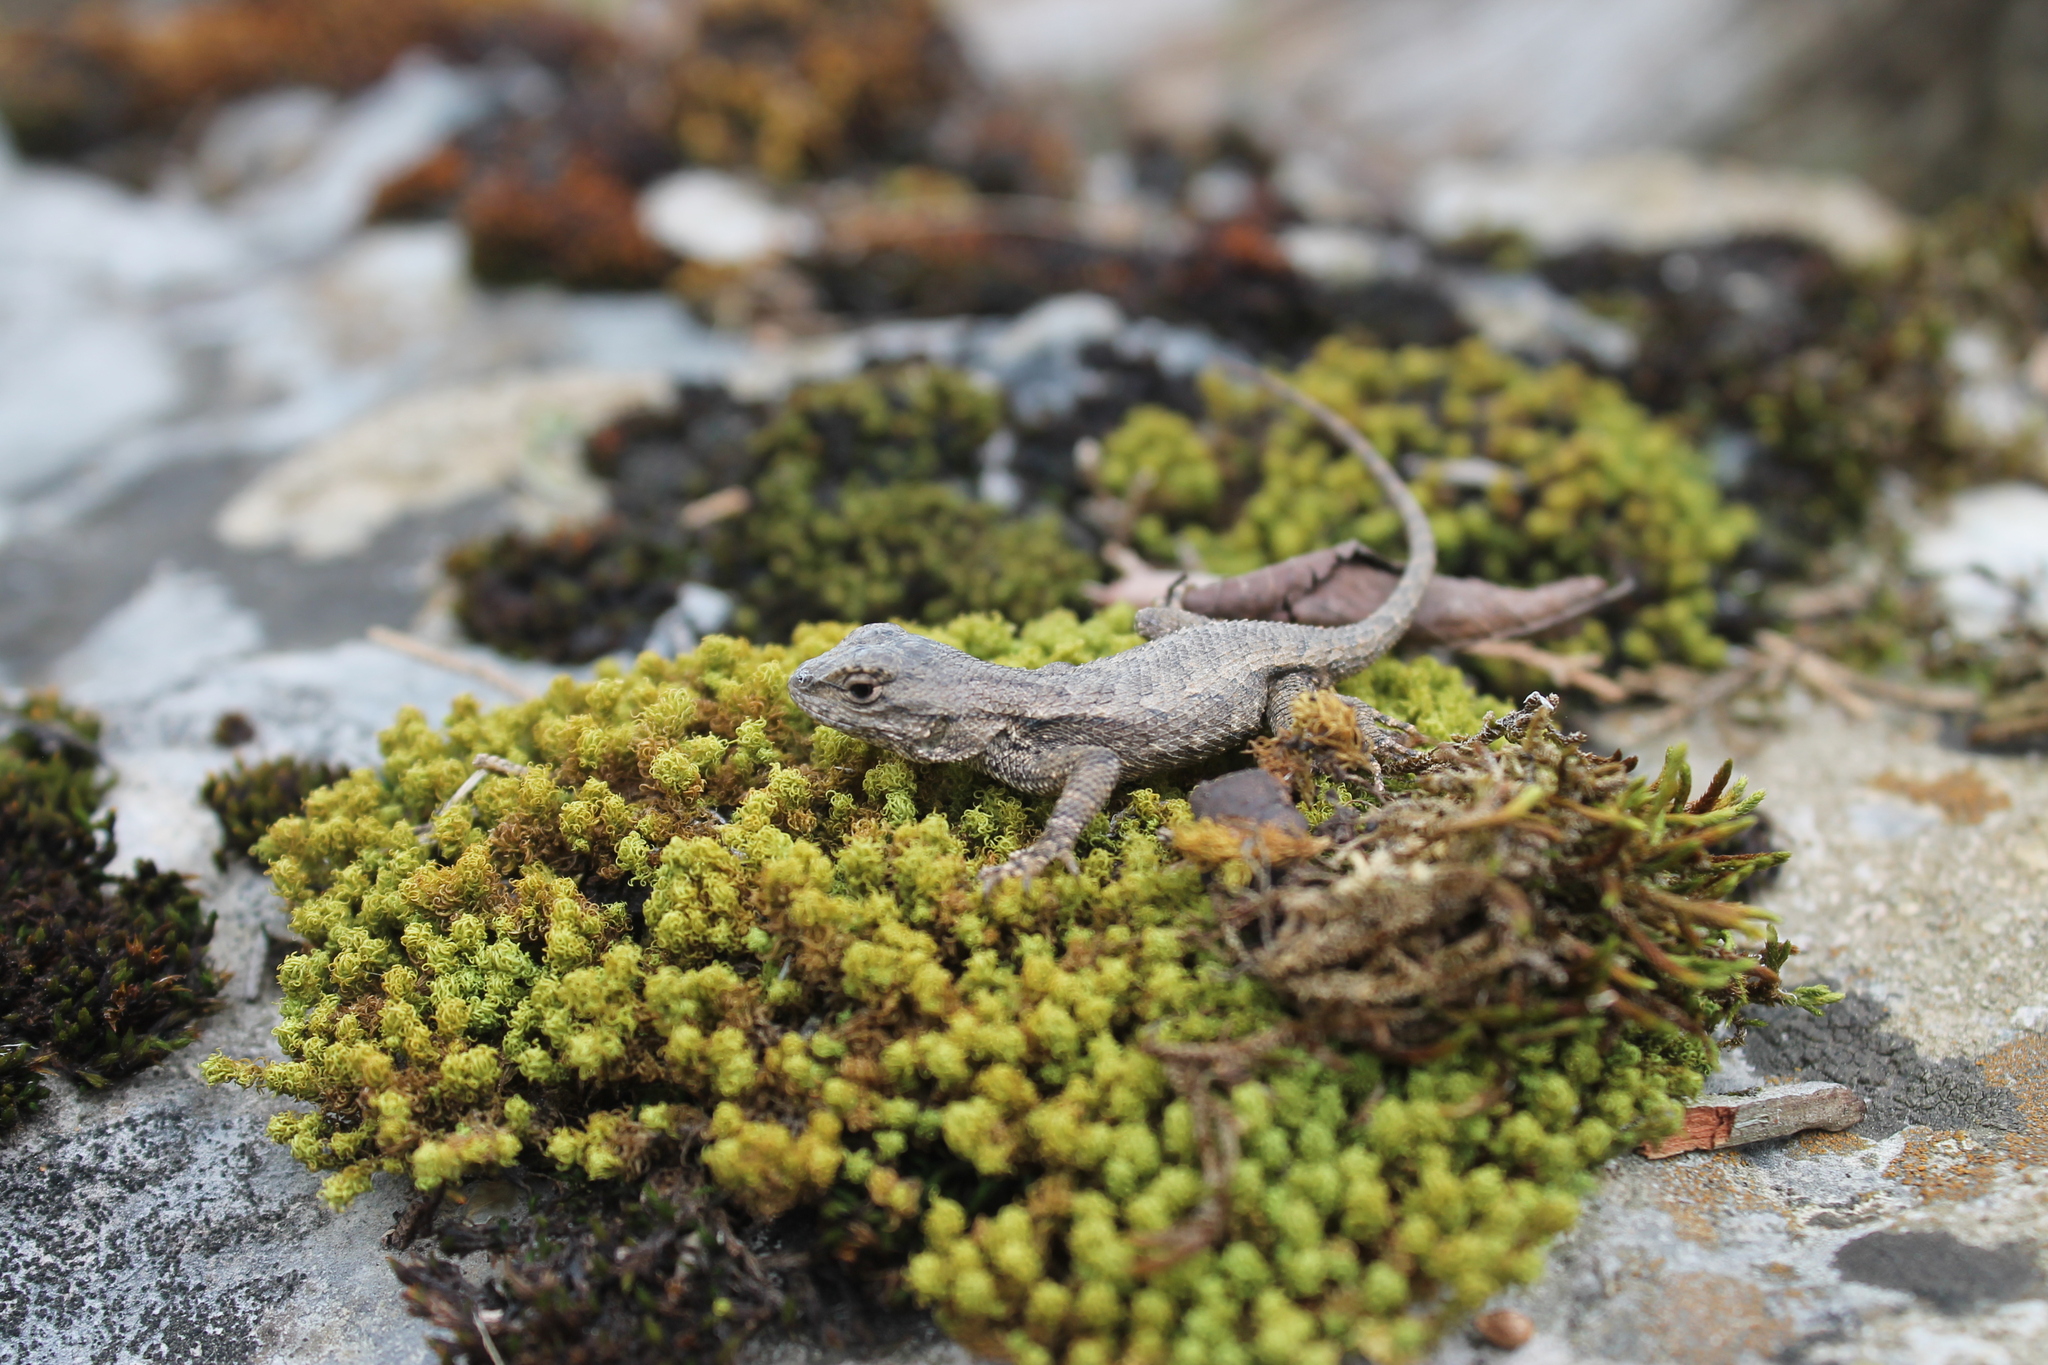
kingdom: Animalia
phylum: Chordata
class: Squamata
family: Phrynosomatidae
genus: Sceloporus
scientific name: Sceloporus undulatus
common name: Eastern fence lizard
